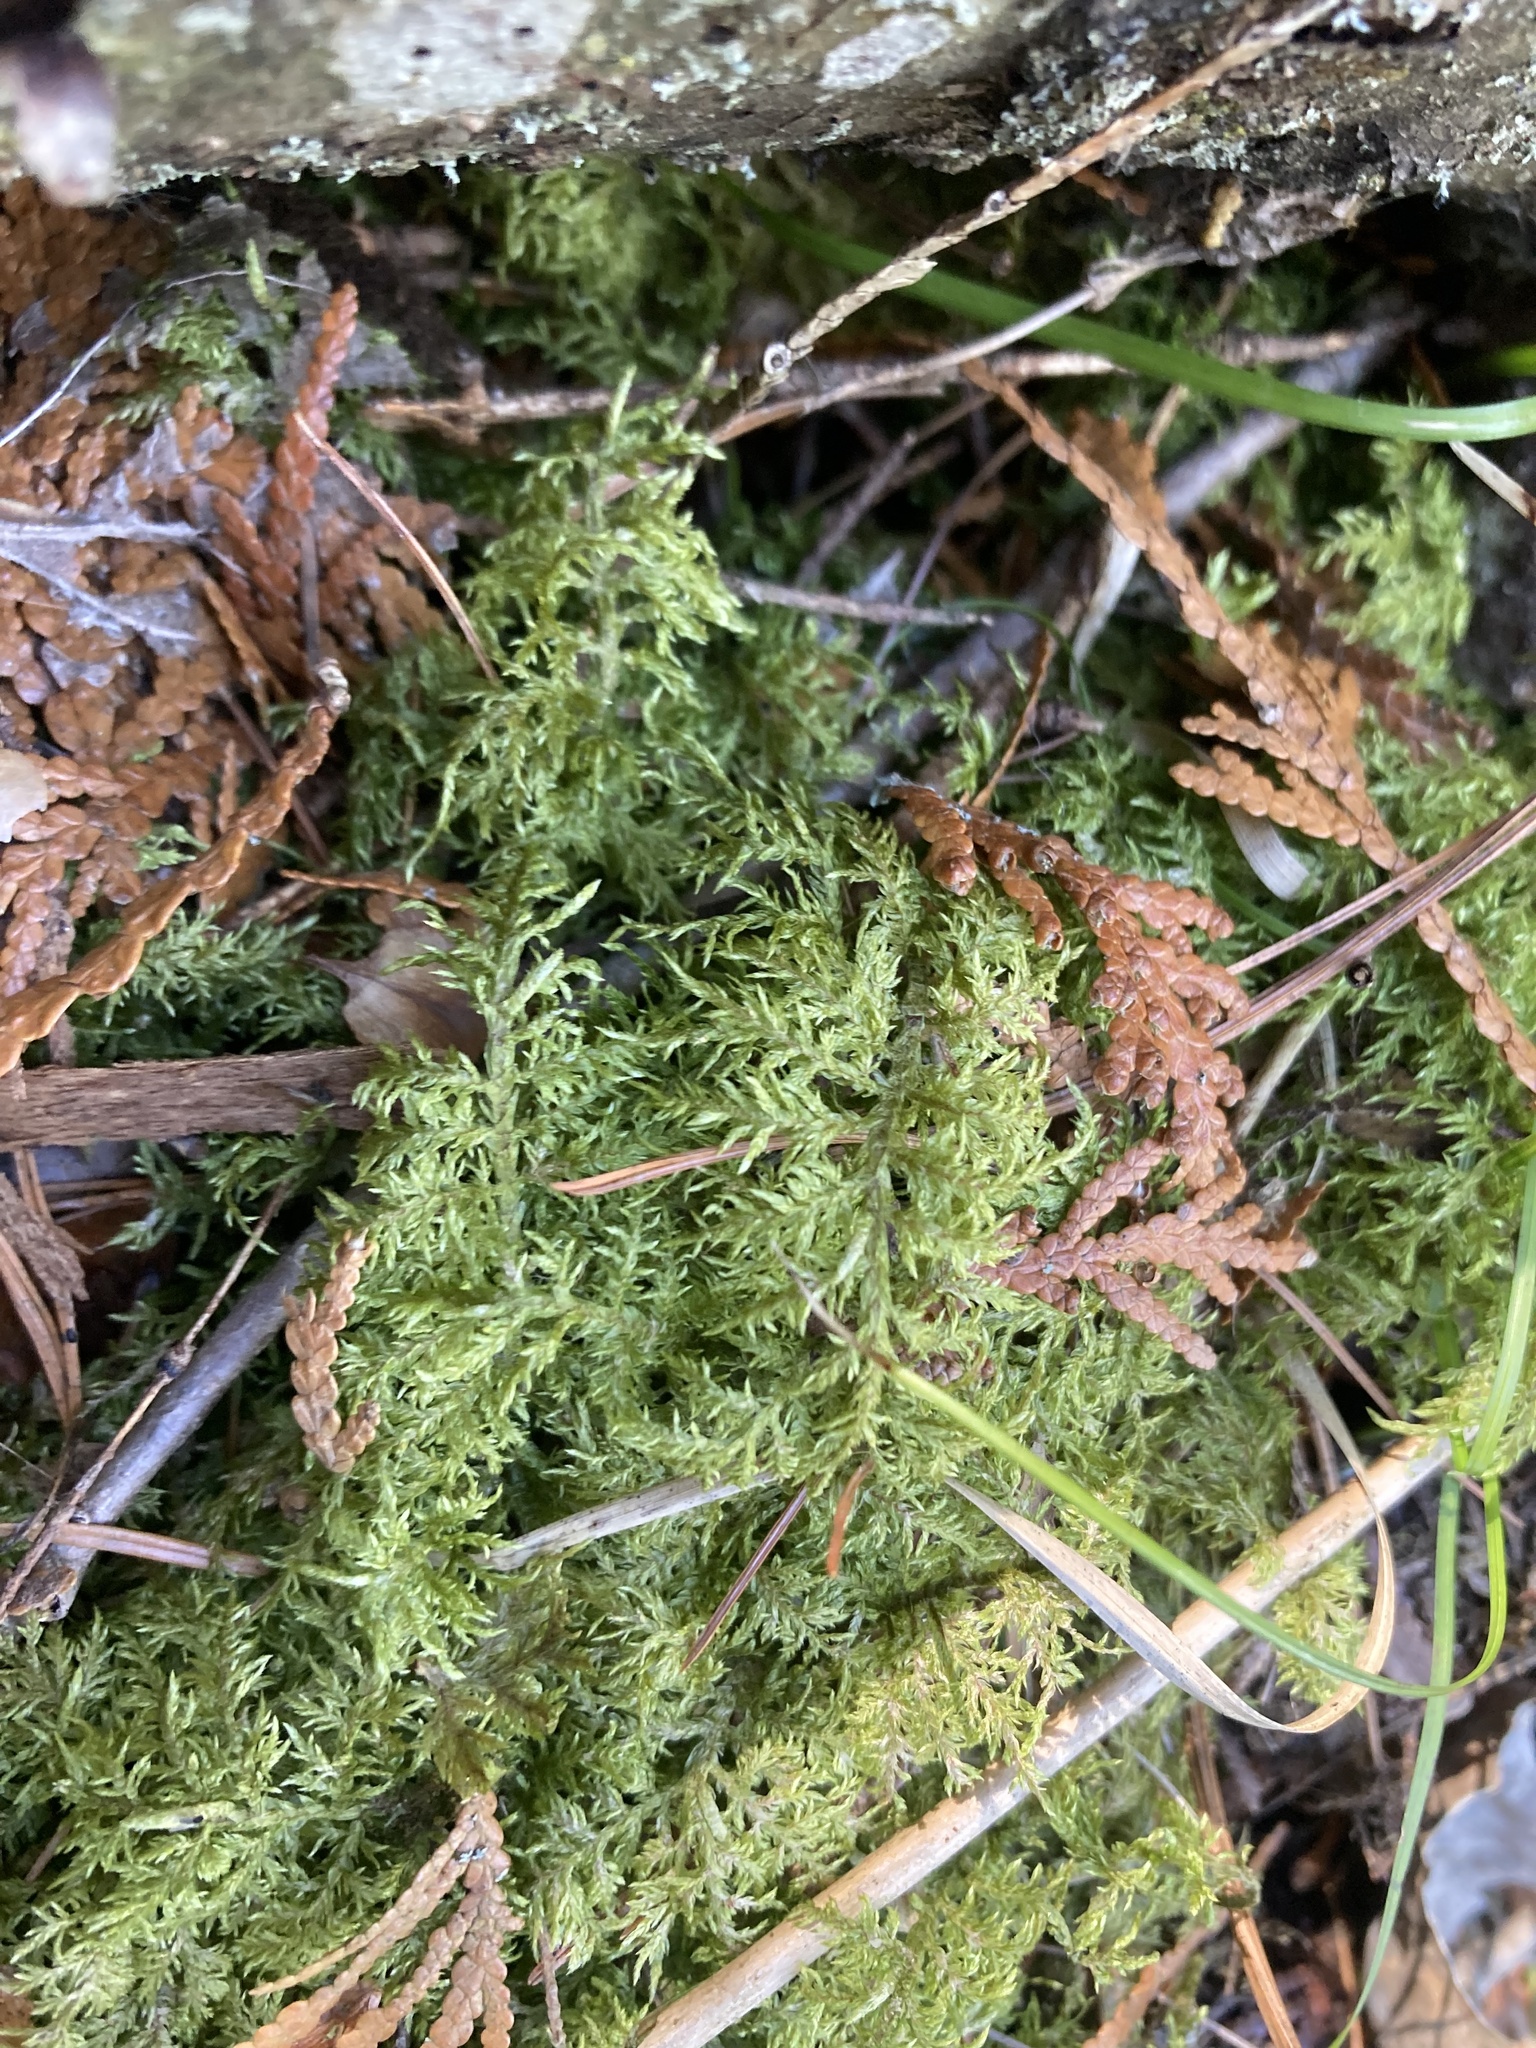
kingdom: Plantae
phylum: Bryophyta
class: Bryopsida
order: Hypnales
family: Hylocomiaceae
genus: Hylocomium
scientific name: Hylocomium splendens
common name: Stairstep moss
